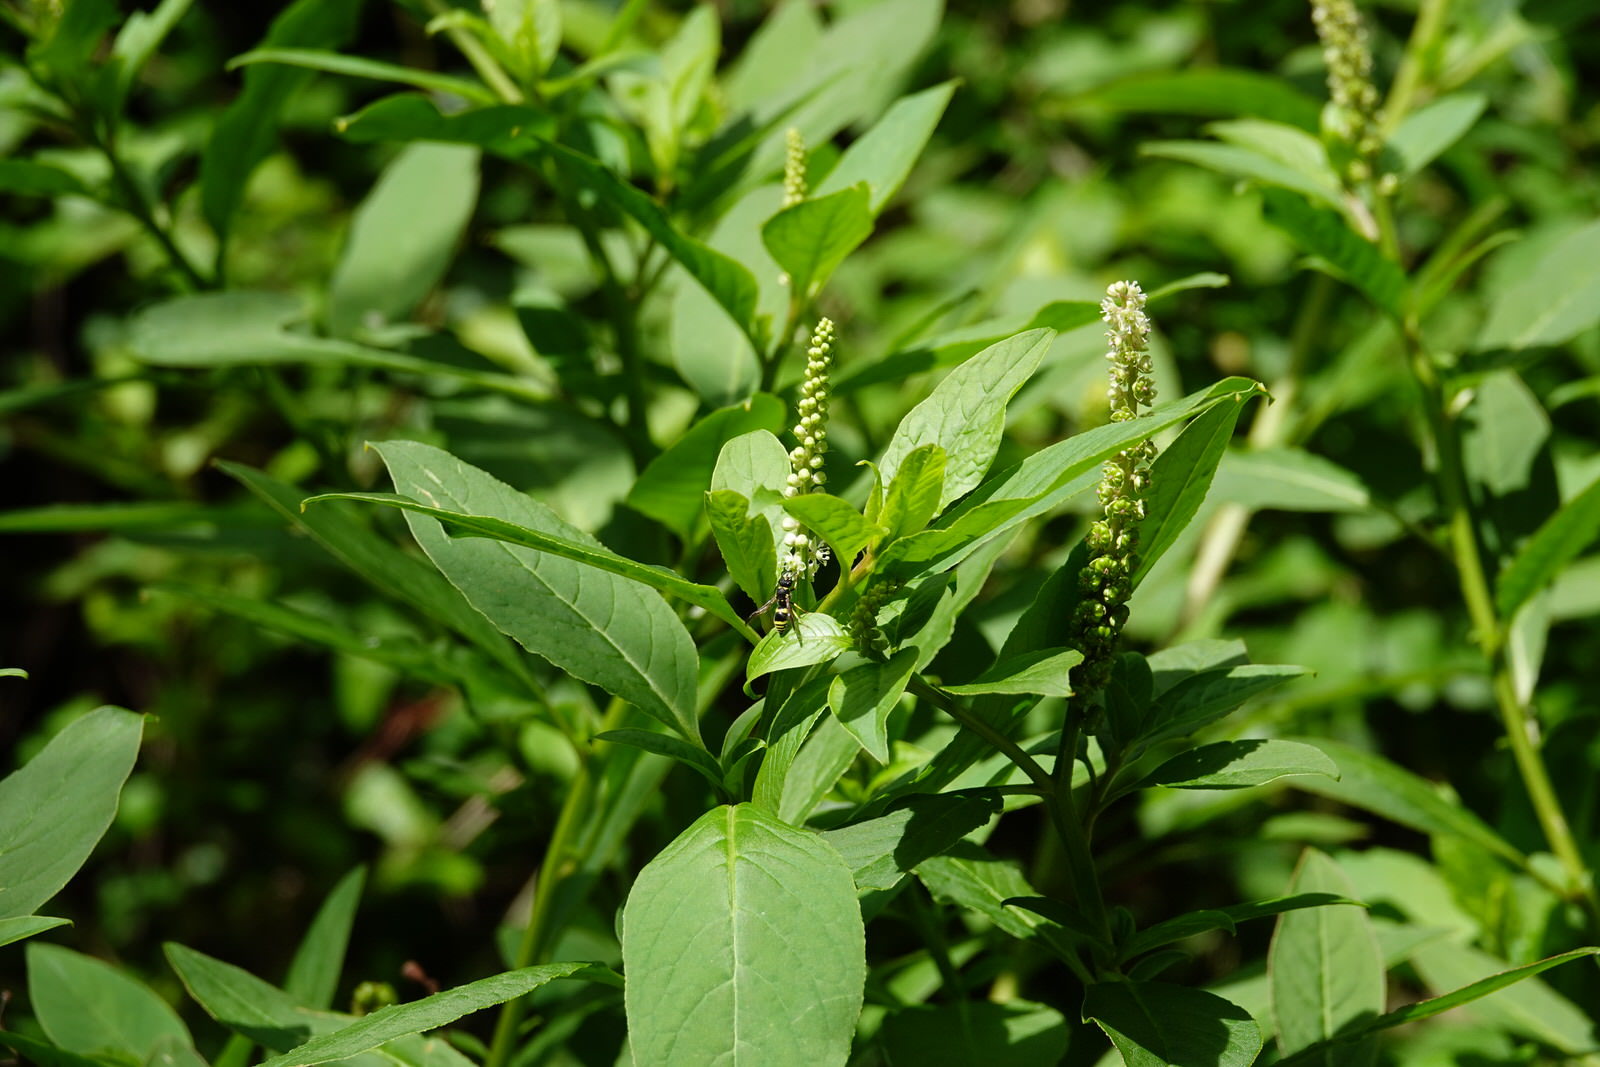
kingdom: Plantae
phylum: Tracheophyta
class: Magnoliopsida
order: Caryophyllales
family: Phytolaccaceae
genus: Phytolacca
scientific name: Phytolacca icosandra
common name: Button pokeweed
